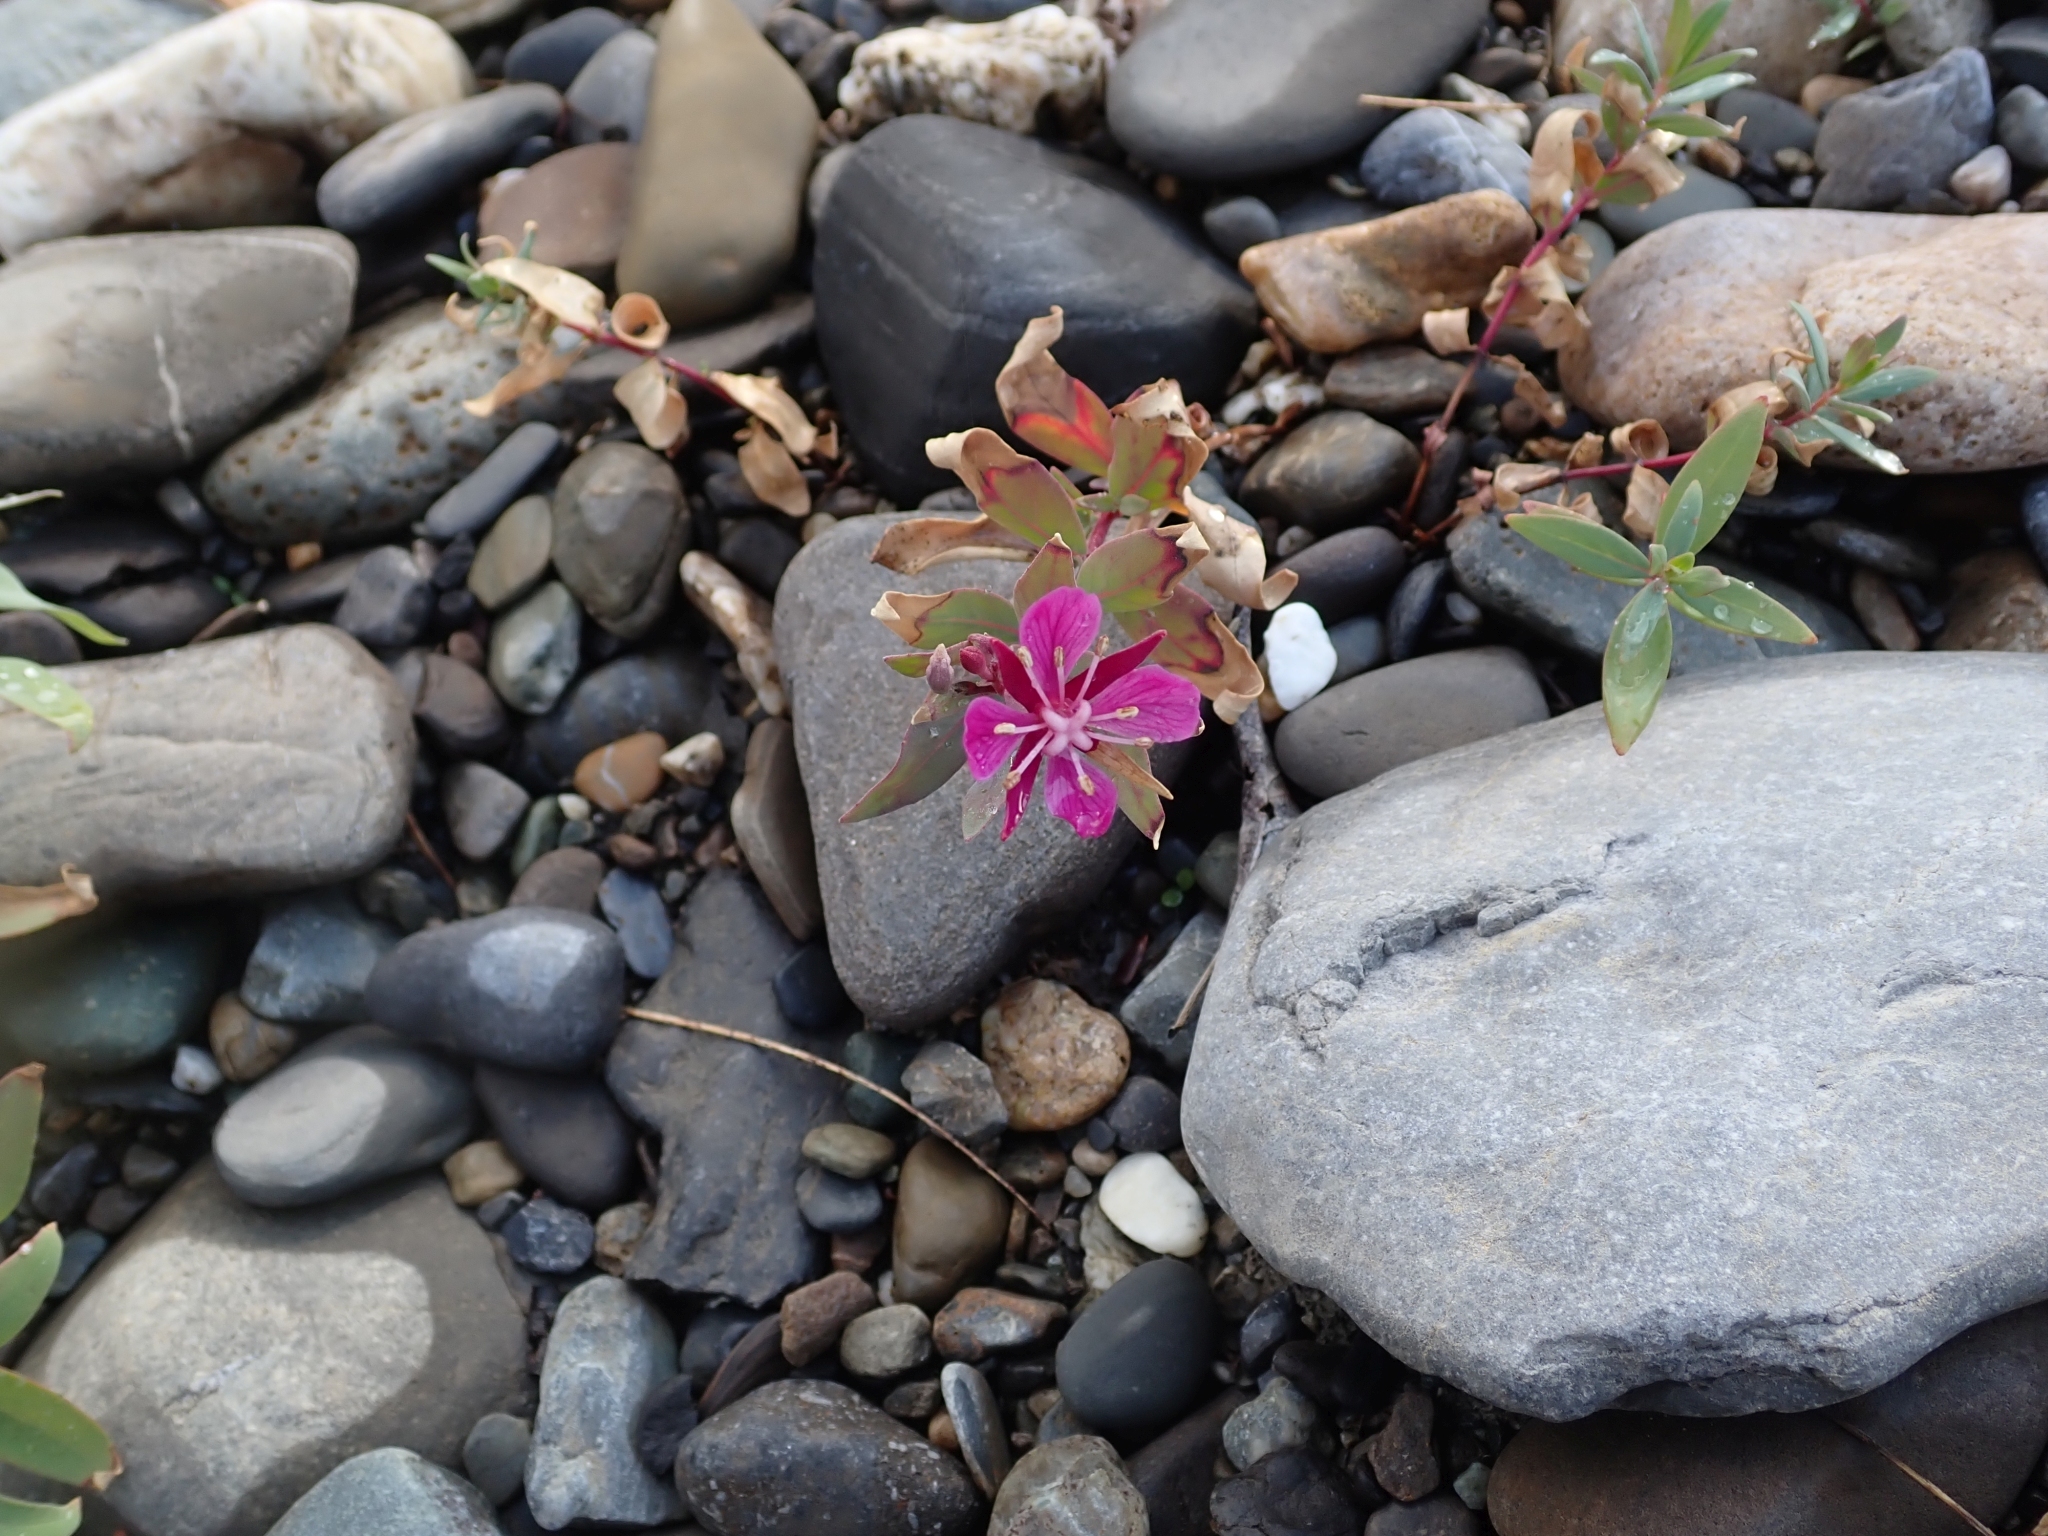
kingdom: Plantae
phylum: Tracheophyta
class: Magnoliopsida
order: Myrtales
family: Onagraceae
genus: Chamaenerion
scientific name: Chamaenerion latifolium
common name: Dwarf fireweed
